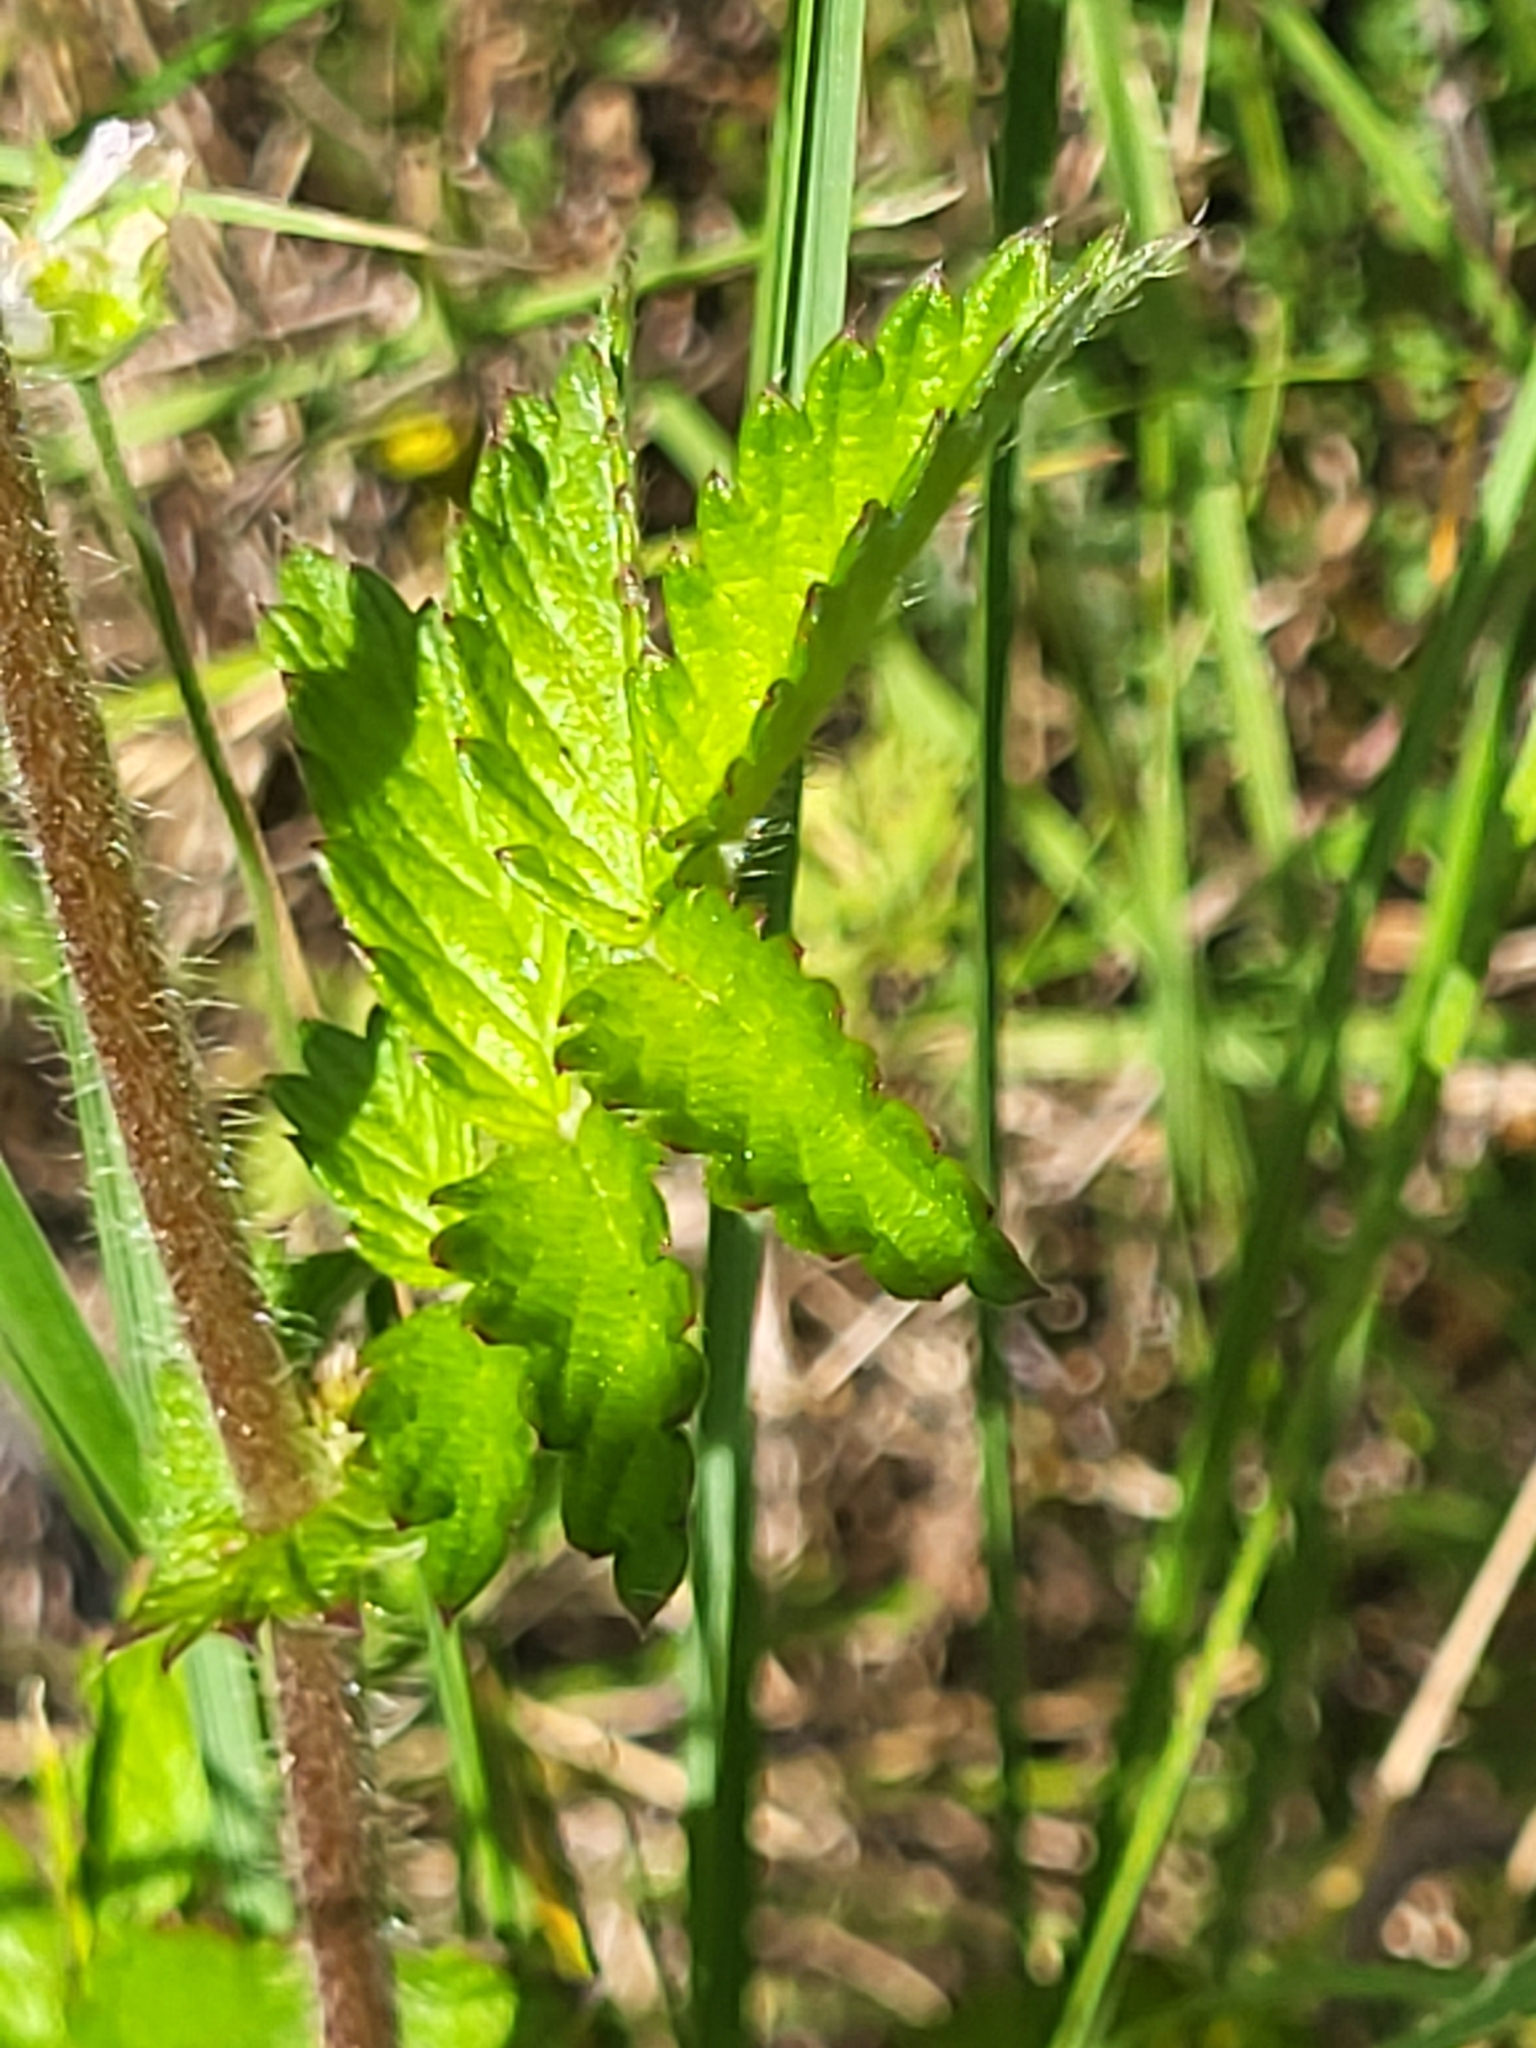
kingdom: Plantae
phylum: Tracheophyta
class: Magnoliopsida
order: Rosales
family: Rosaceae
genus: Agrimonia
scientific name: Agrimonia eupatoria
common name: Agrimony
